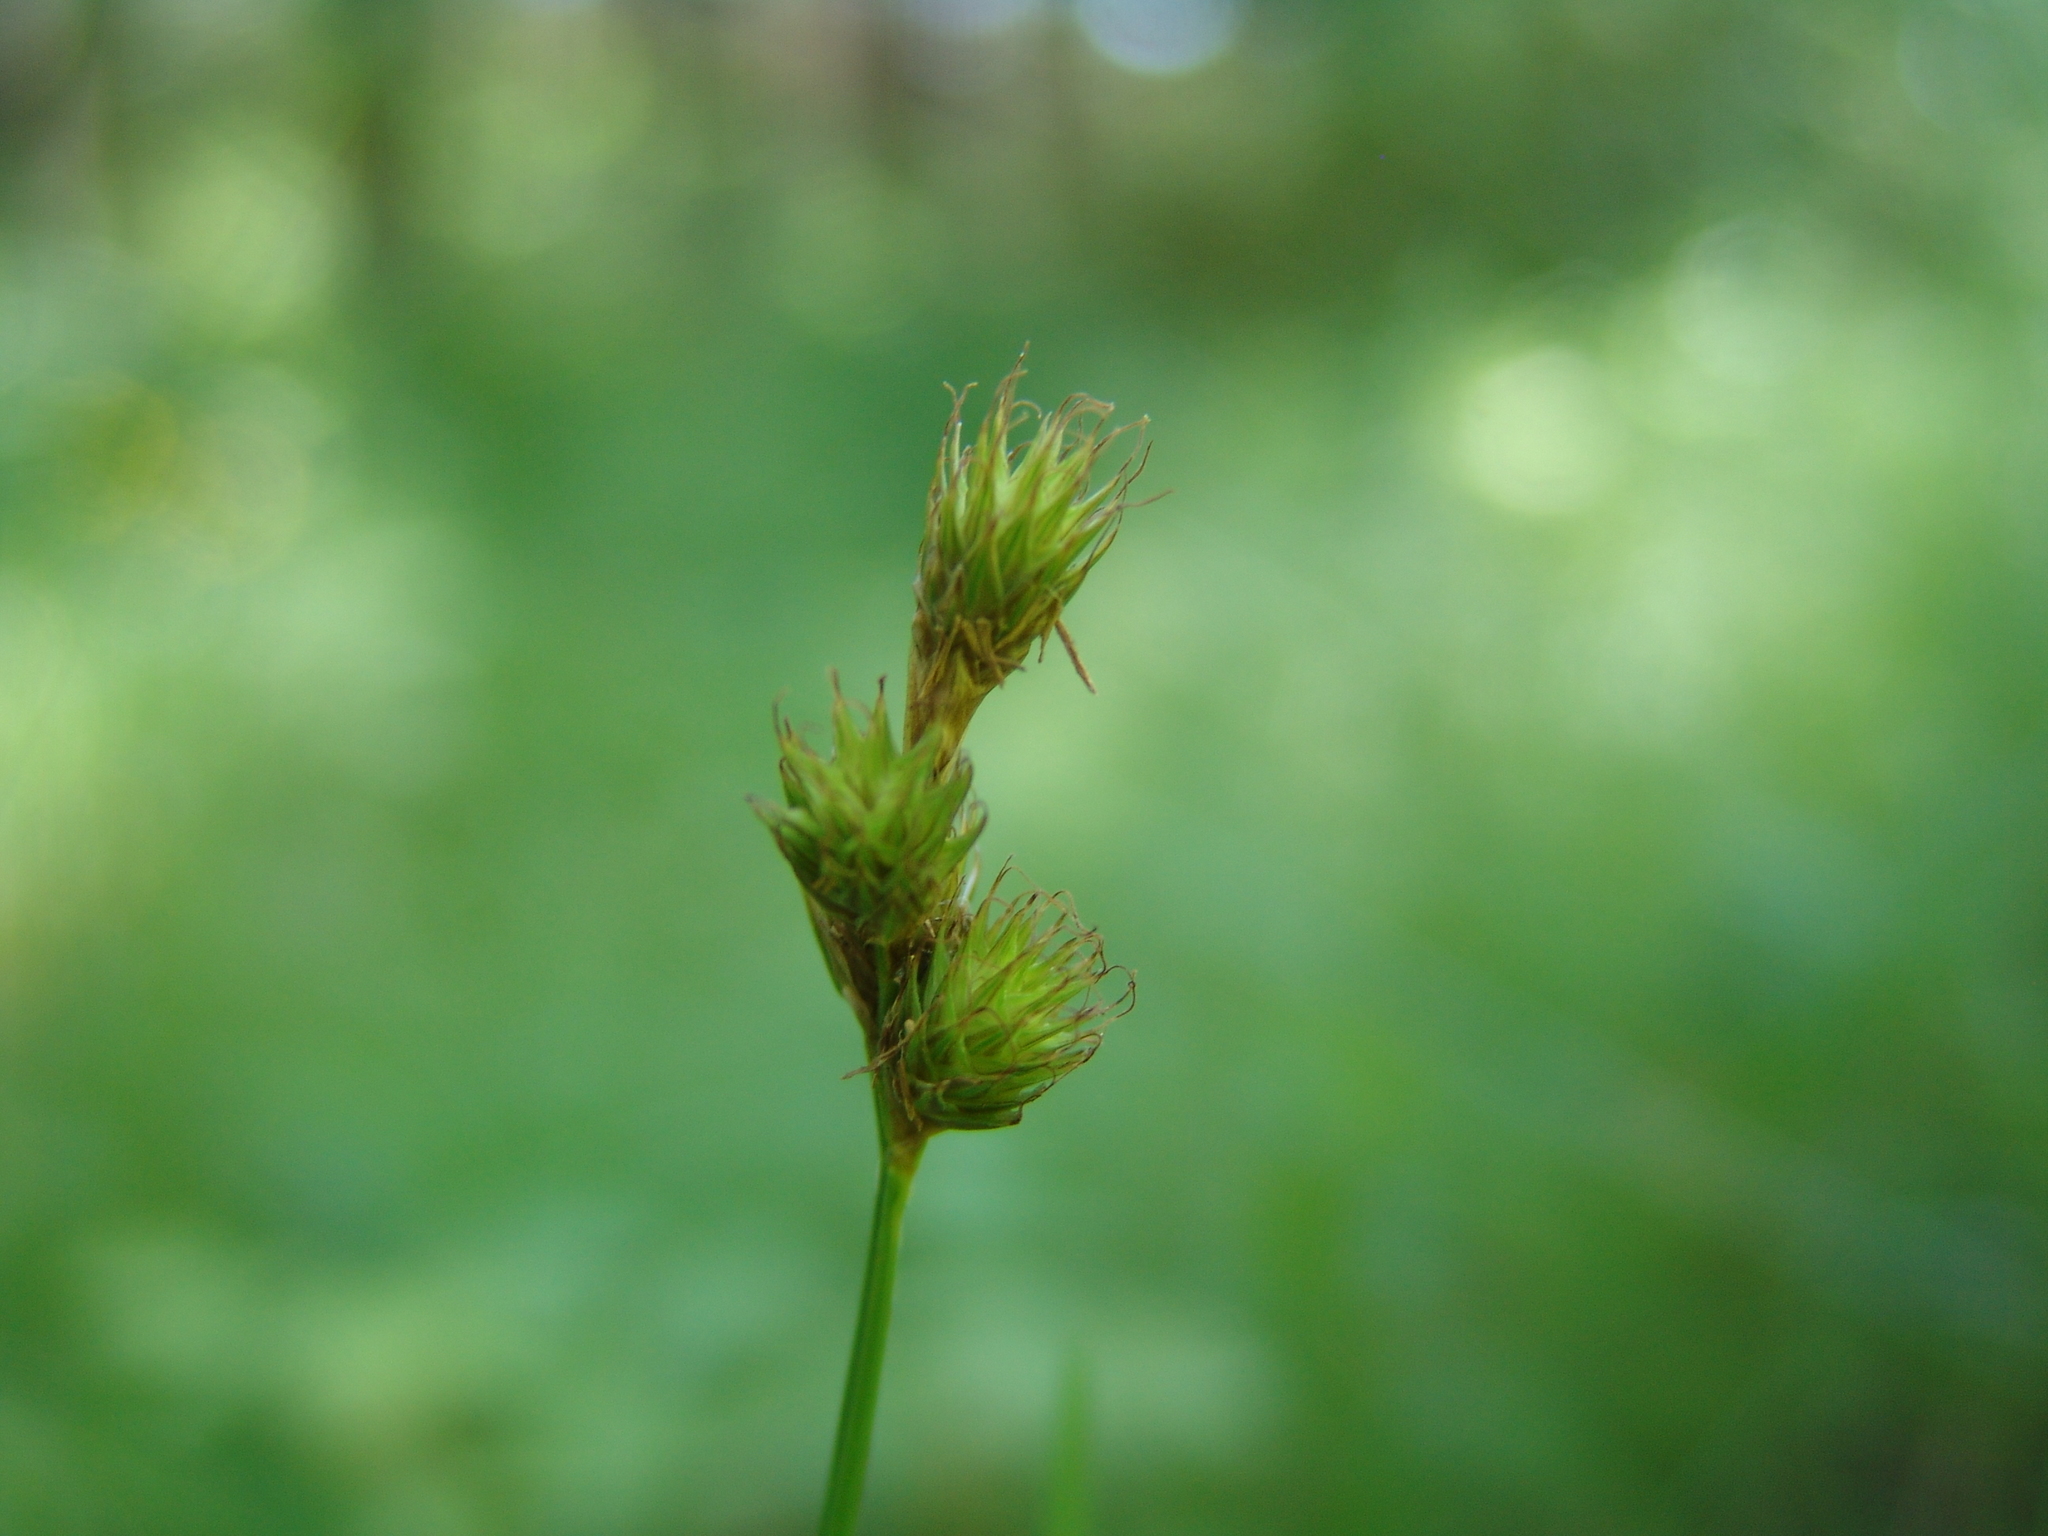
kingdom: Plantae
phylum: Tracheophyta
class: Liliopsida
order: Poales
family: Cyperaceae
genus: Carex
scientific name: Carex leporina
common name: Oval sedge
